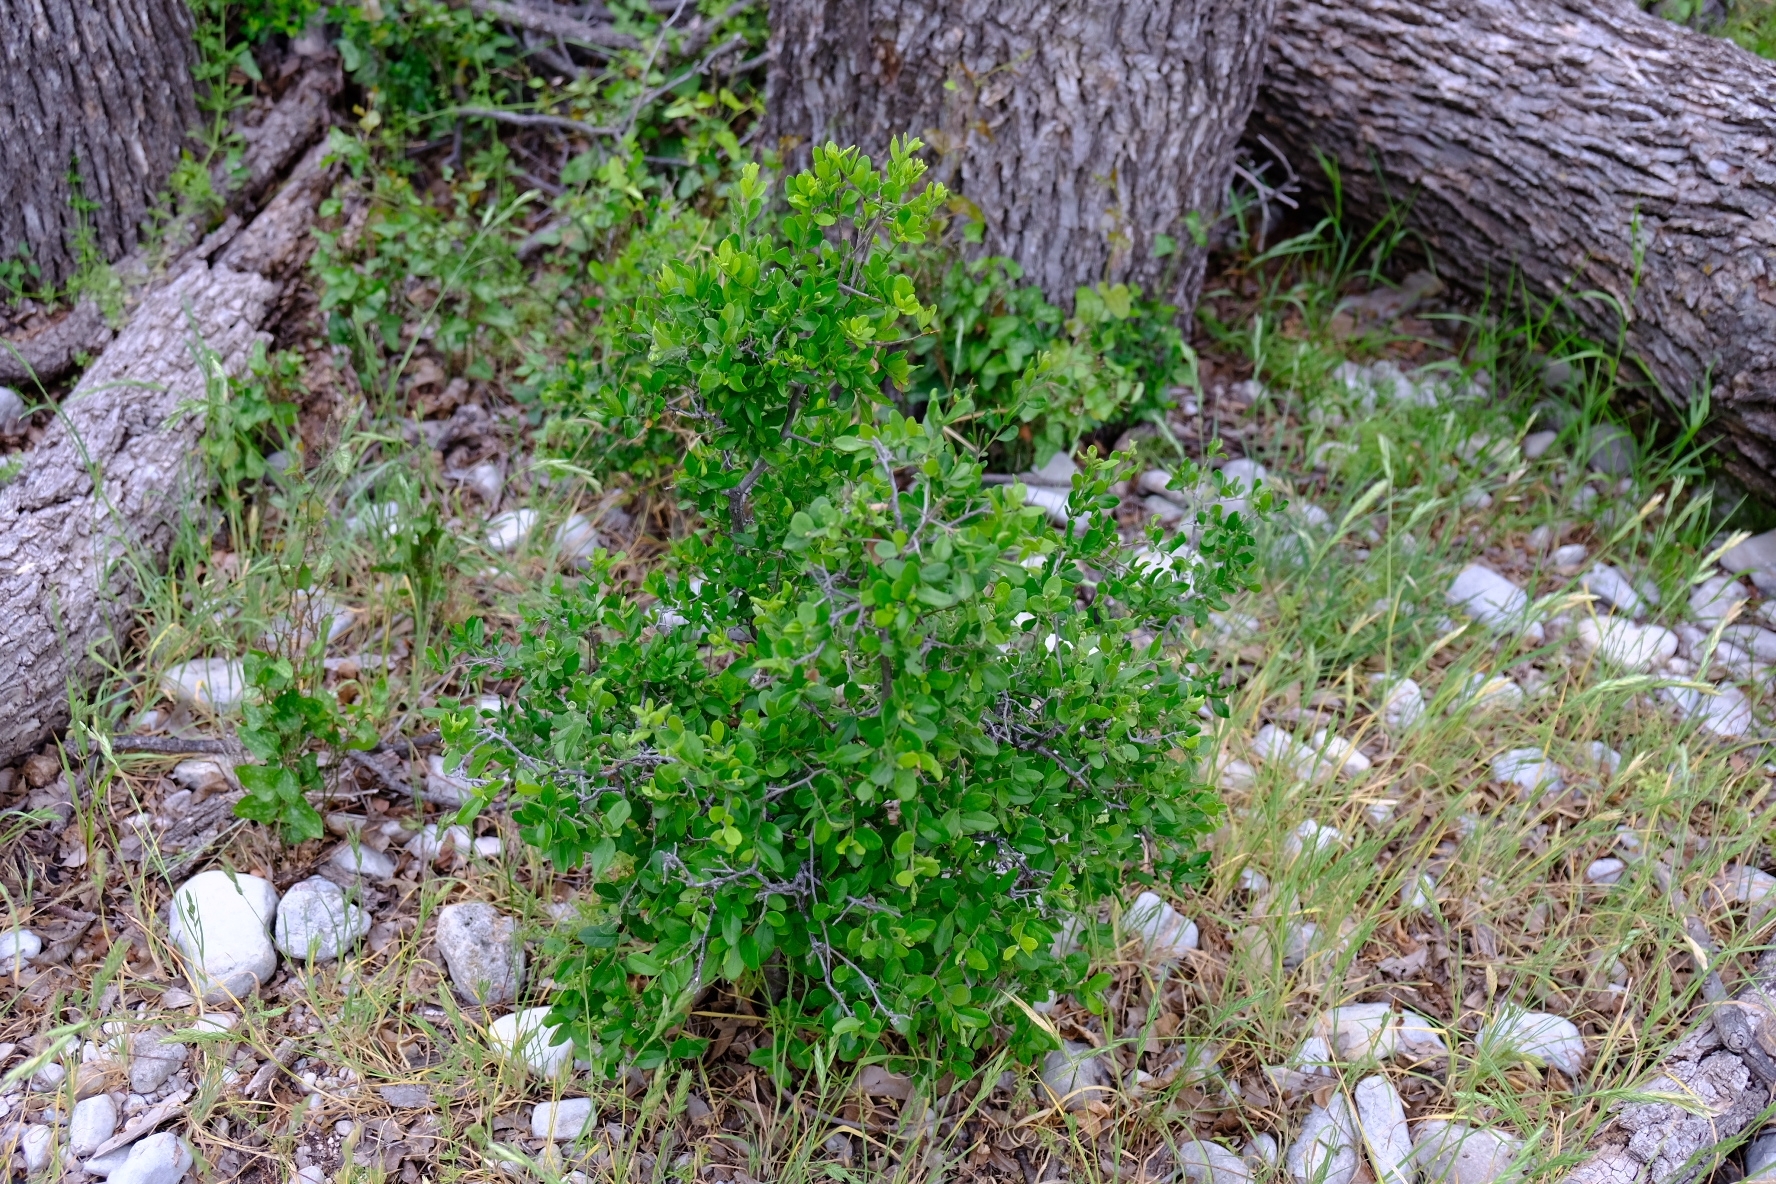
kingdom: Plantae
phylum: Tracheophyta
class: Magnoliopsida
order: Ericales
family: Ebenaceae
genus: Diospyros
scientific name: Diospyros texana
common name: Texas persimmon
